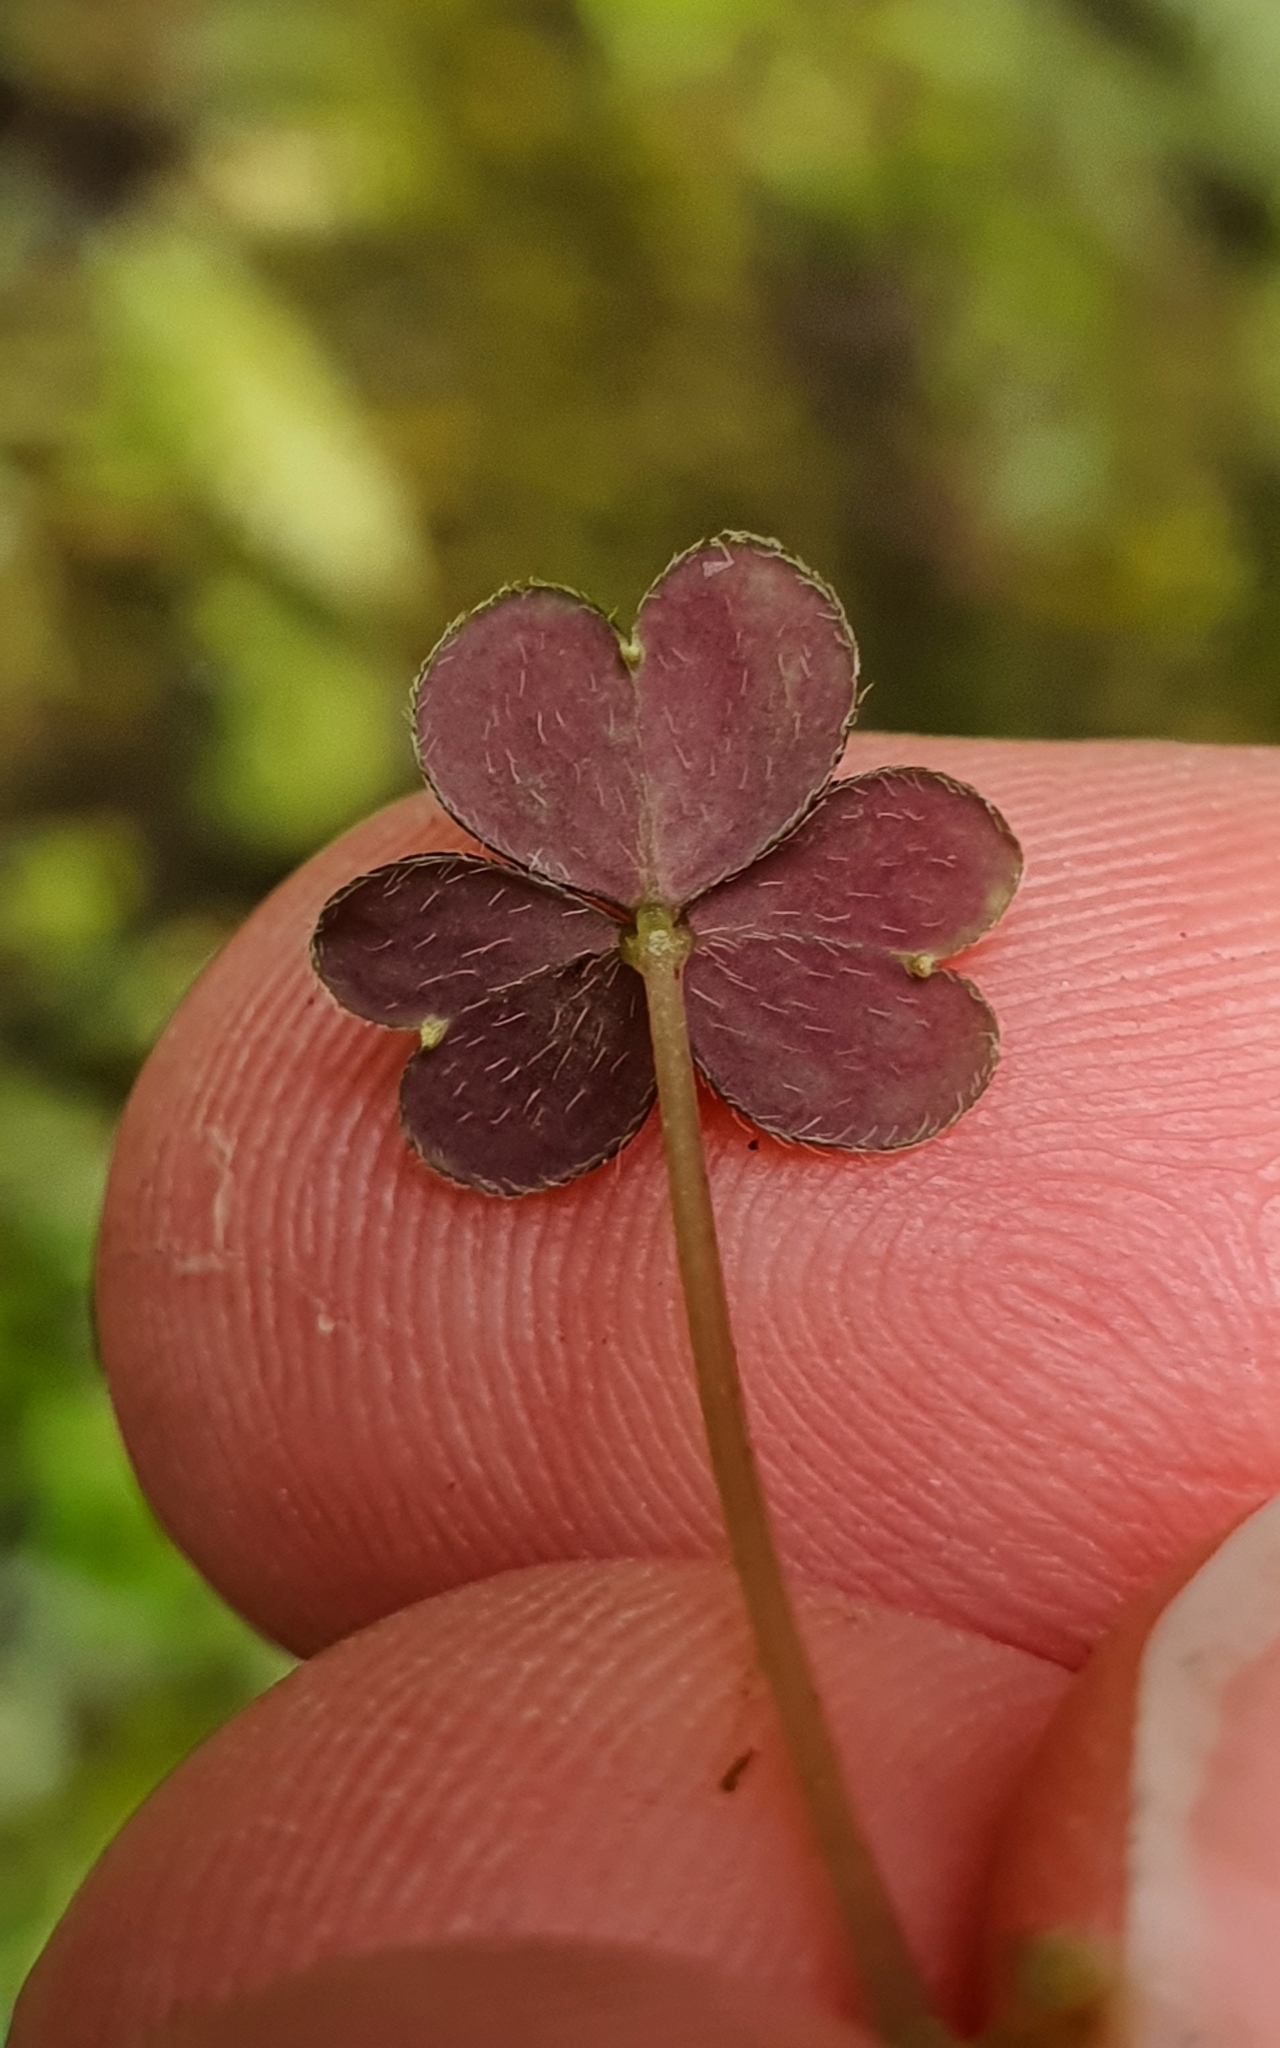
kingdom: Plantae
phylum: Tracheophyta
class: Magnoliopsida
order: Oxalidales
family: Oxalidaceae
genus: Oxalis
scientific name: Oxalis magellanica
